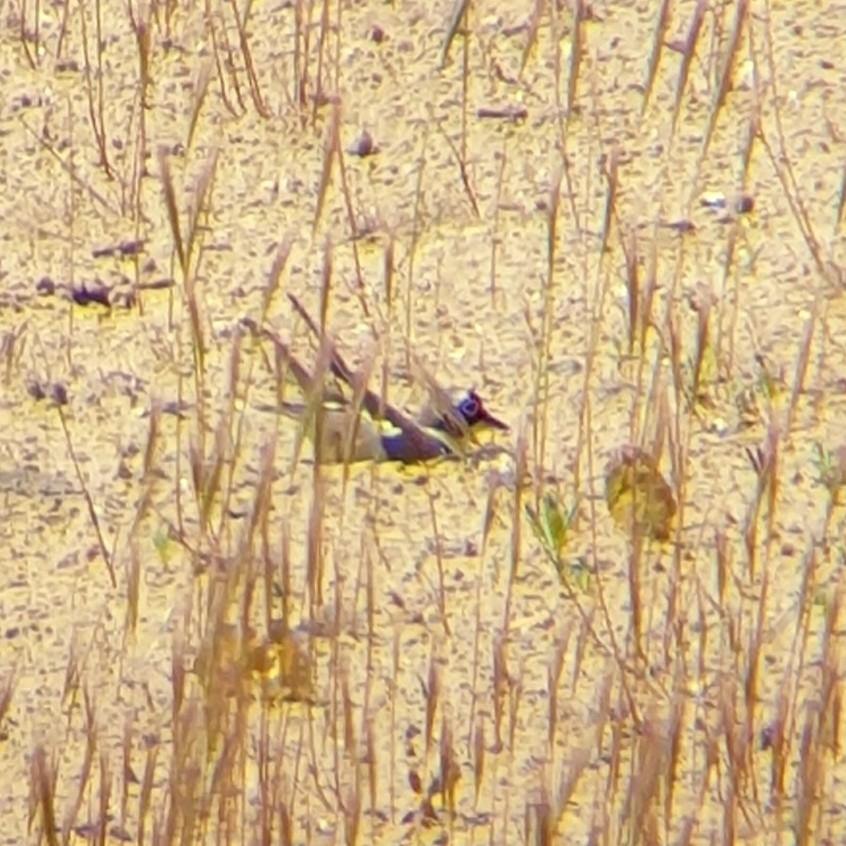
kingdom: Animalia
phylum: Chordata
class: Aves
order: Charadriiformes
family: Charadriidae
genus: Charadrius
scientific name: Charadrius dubius
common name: Little ringed plover
